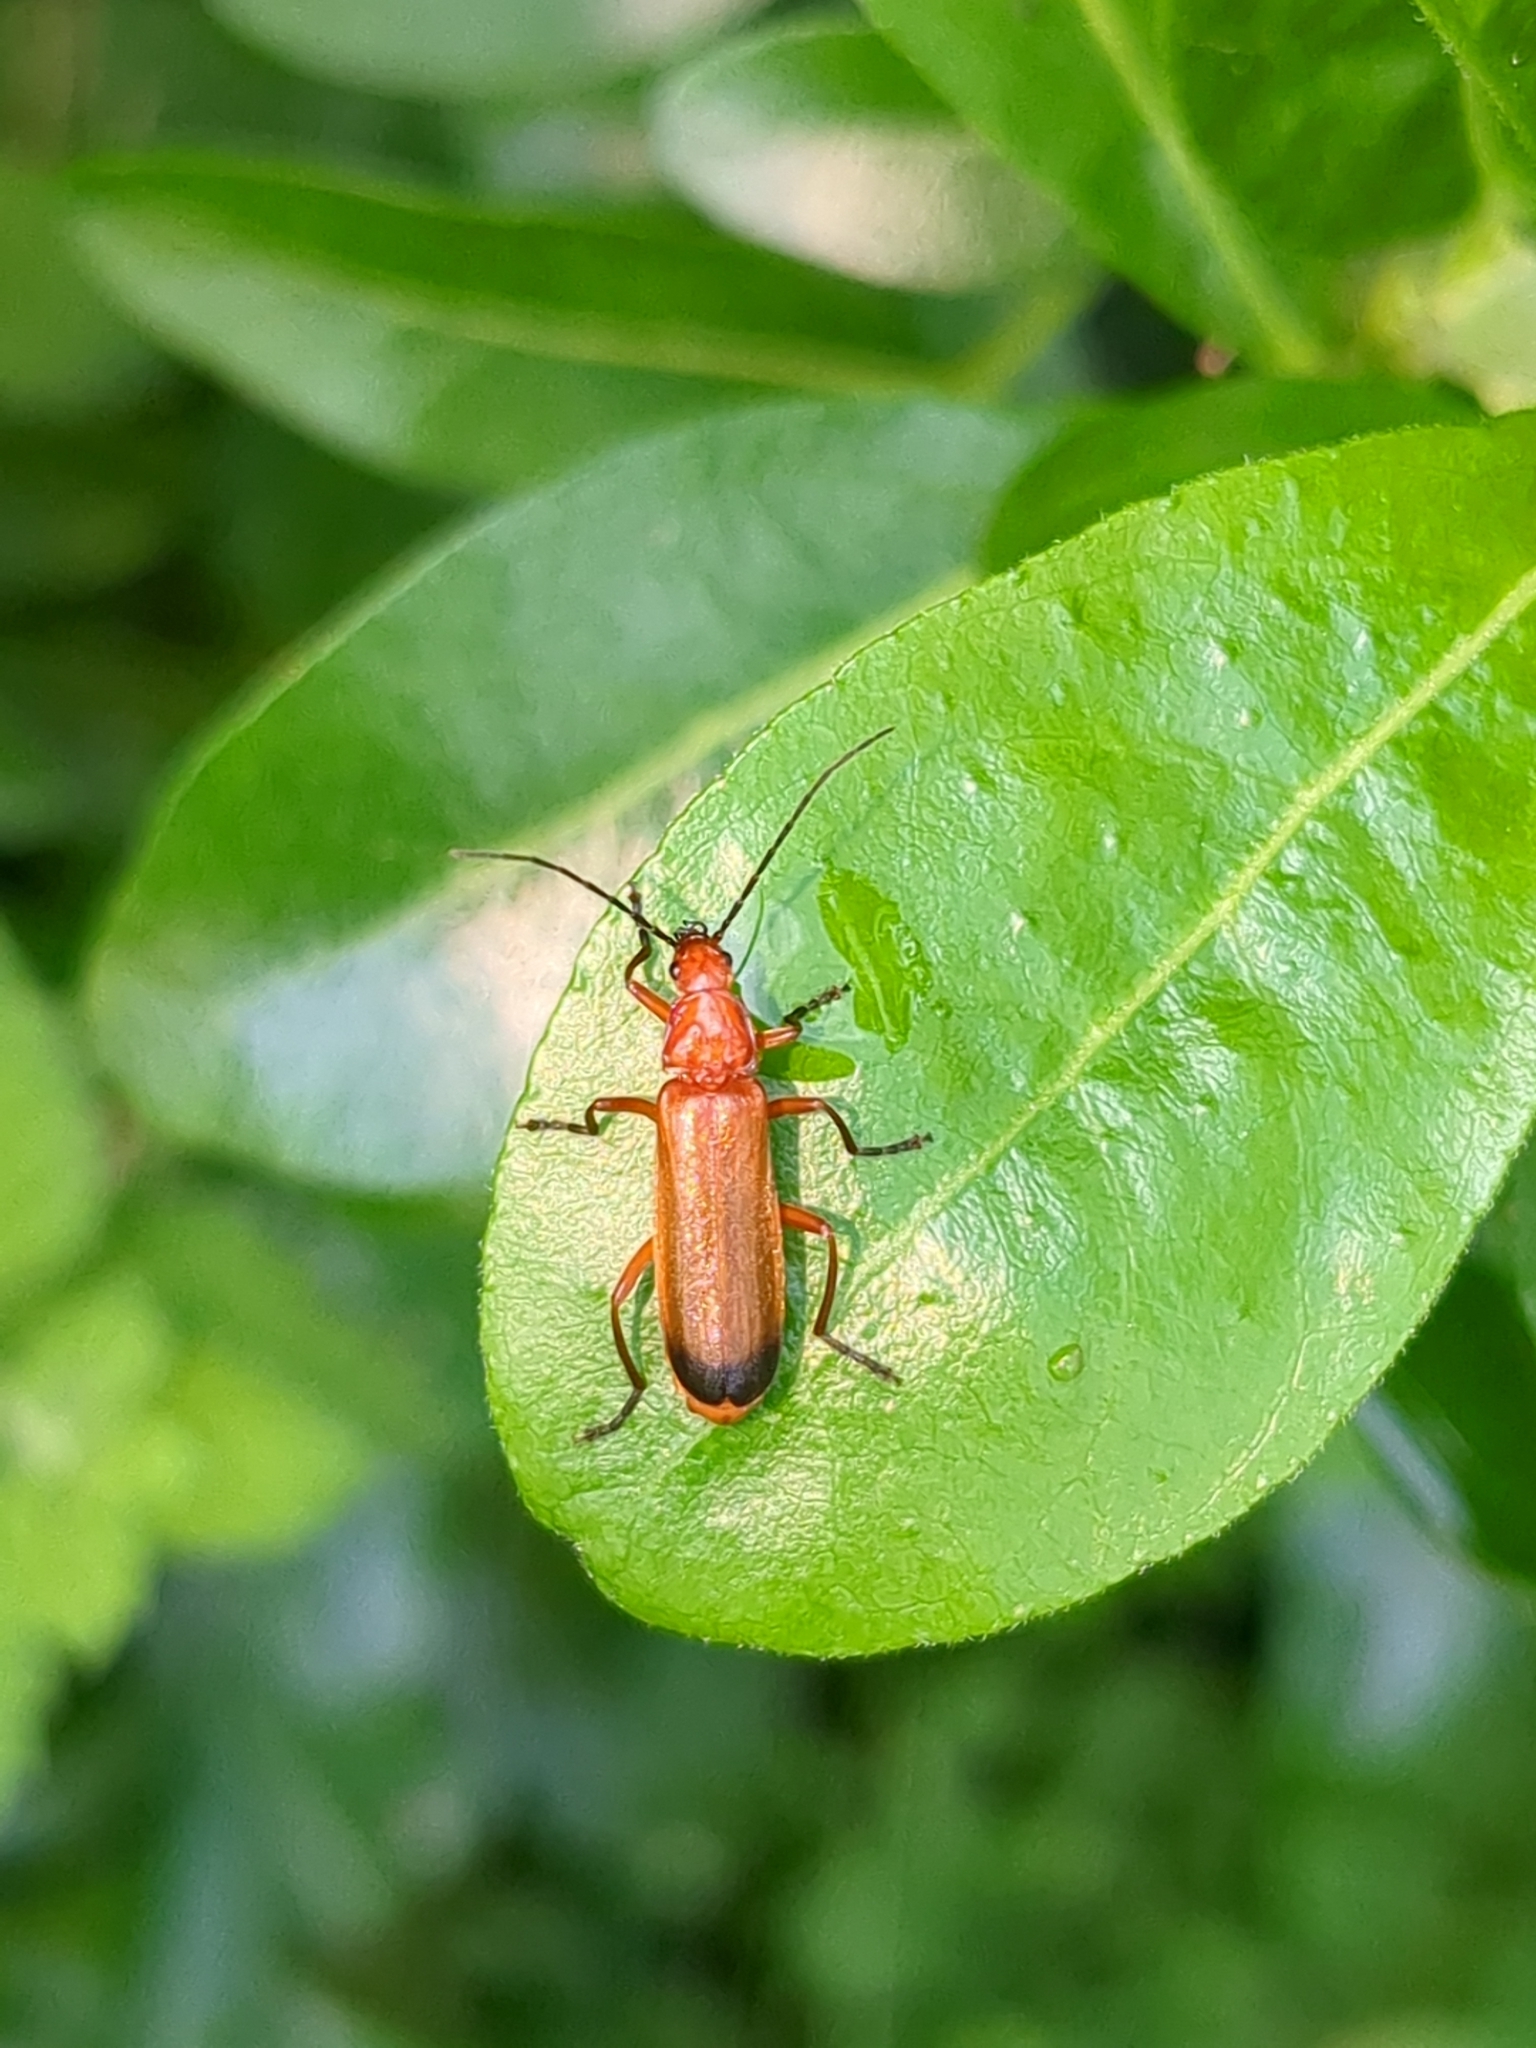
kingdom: Animalia
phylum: Arthropoda
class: Insecta
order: Coleoptera
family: Cantharidae
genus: Rhagonycha
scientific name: Rhagonycha fulva
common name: Common red soldier beetle
